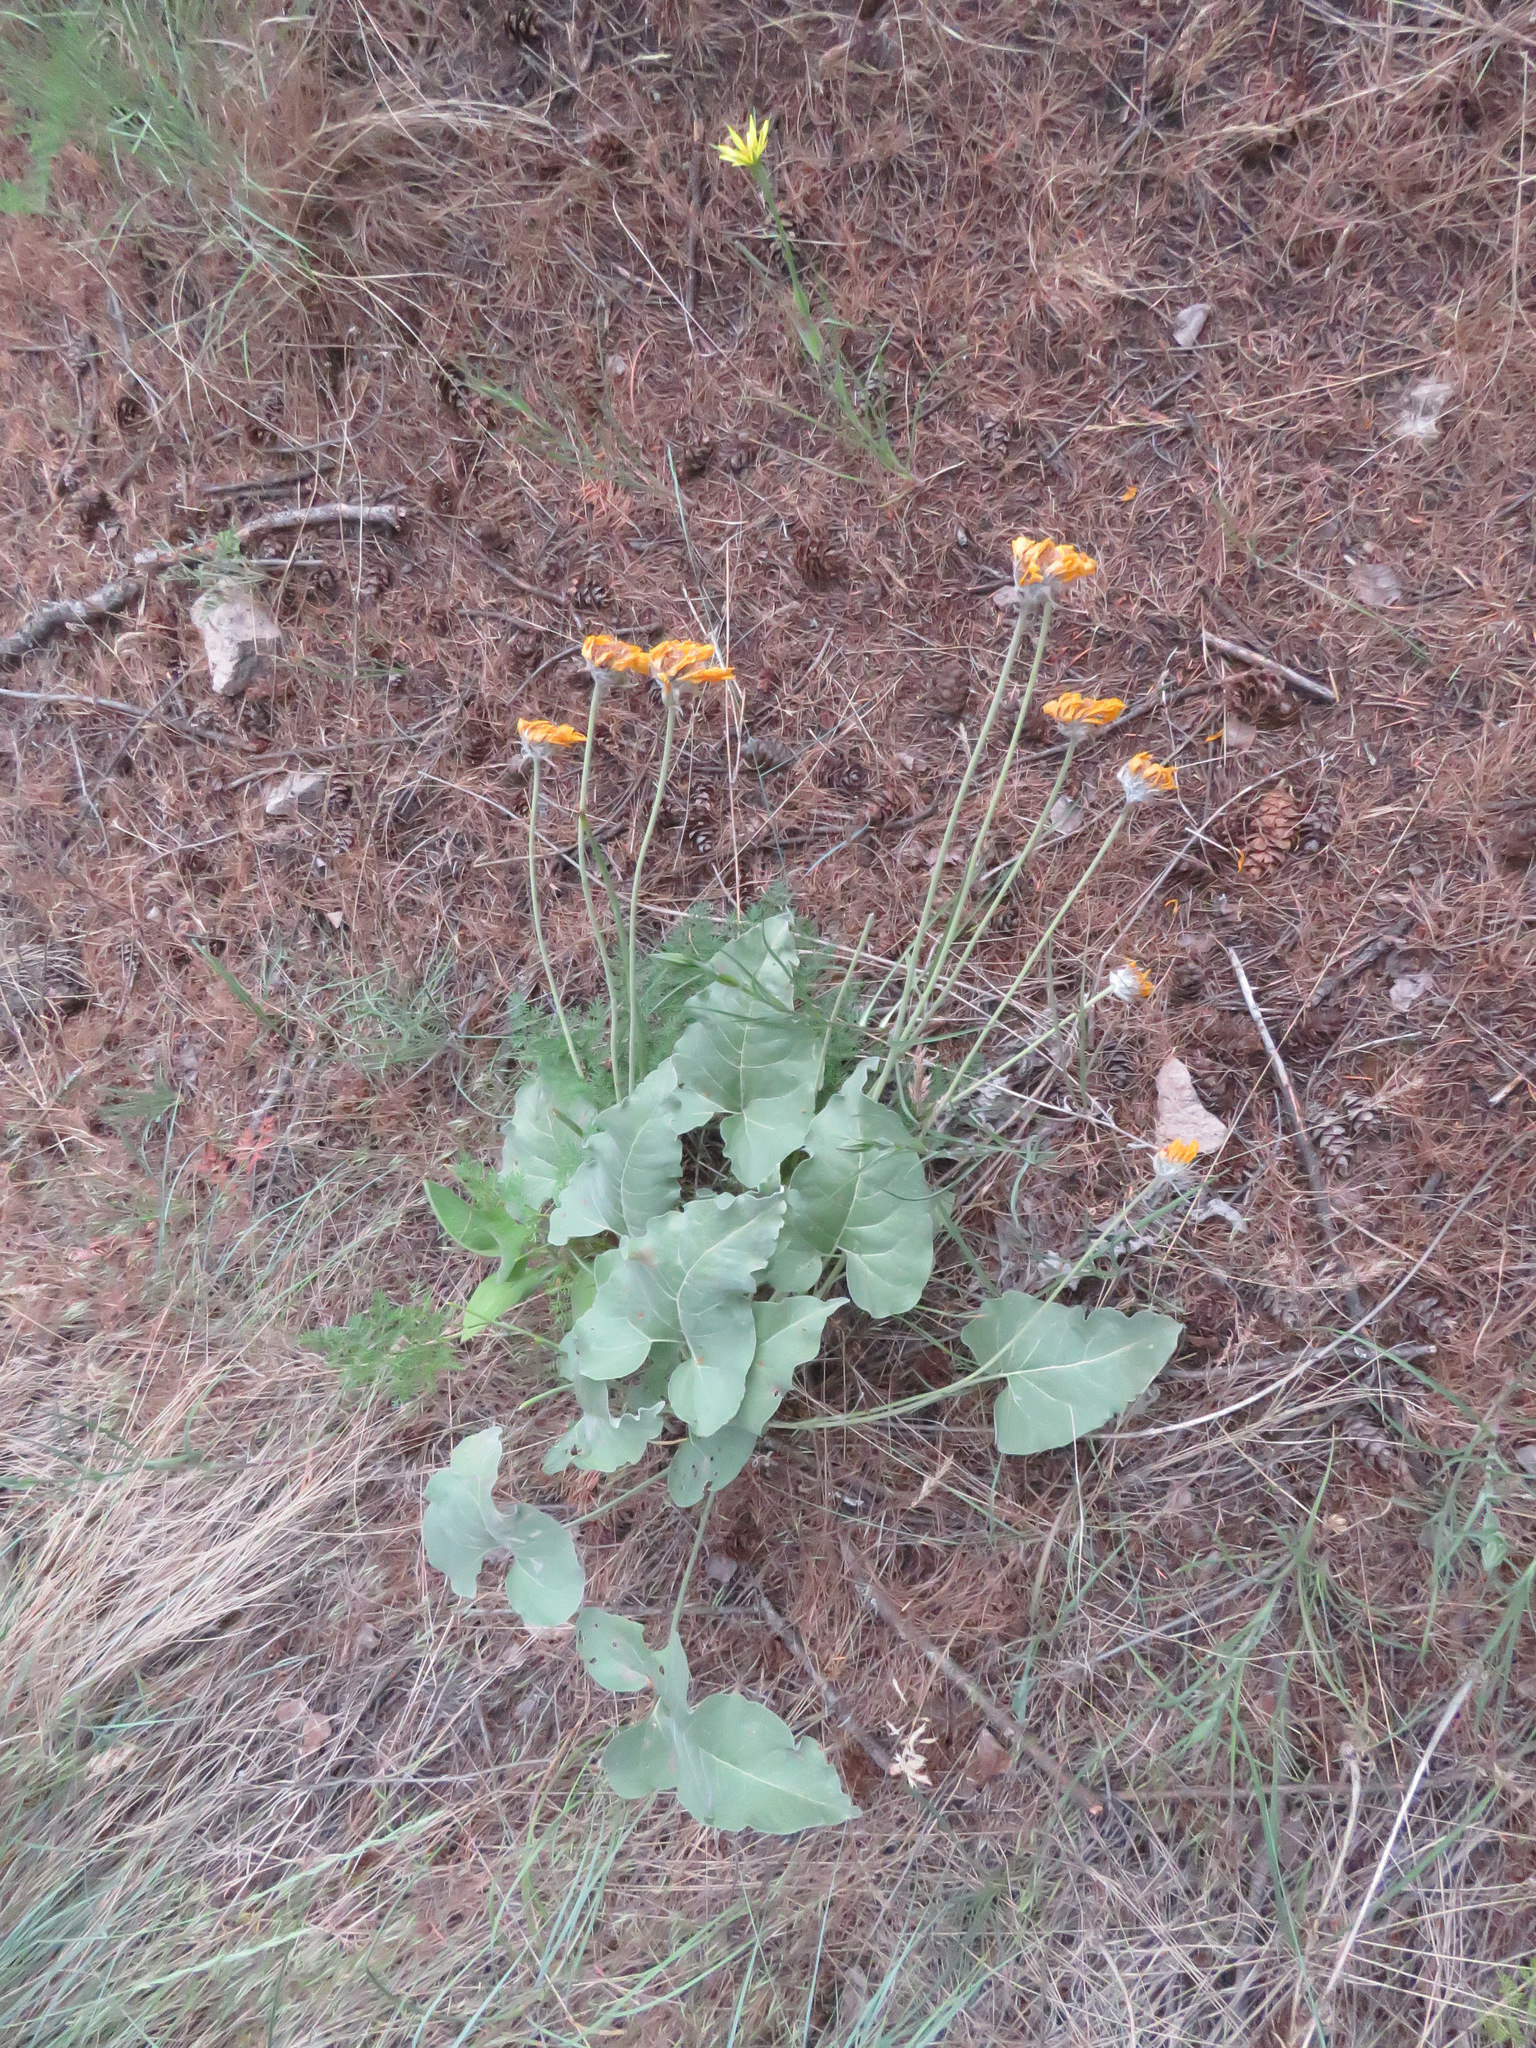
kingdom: Plantae
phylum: Tracheophyta
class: Magnoliopsida
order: Asterales
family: Asteraceae
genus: Wyethia
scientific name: Wyethia sagittata
